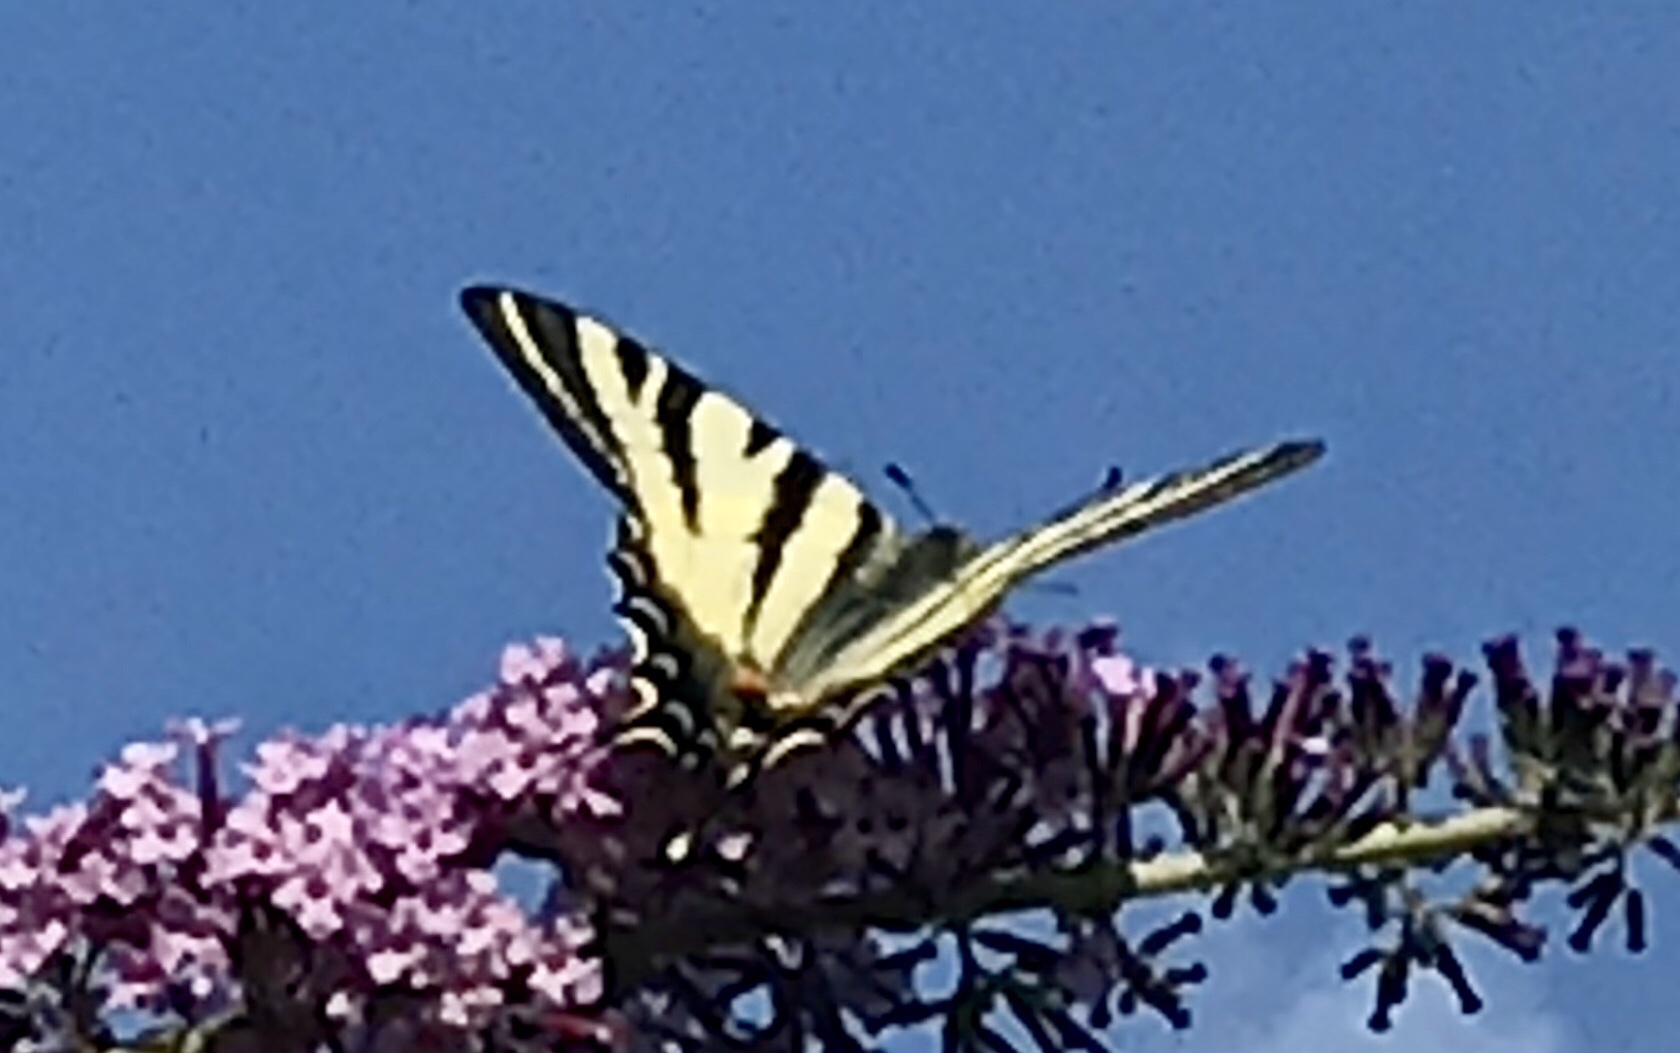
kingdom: Animalia
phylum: Arthropoda
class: Insecta
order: Lepidoptera
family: Papilionidae
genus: Iphiclides
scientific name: Iphiclides podalirius
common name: Scarce swallowtail
